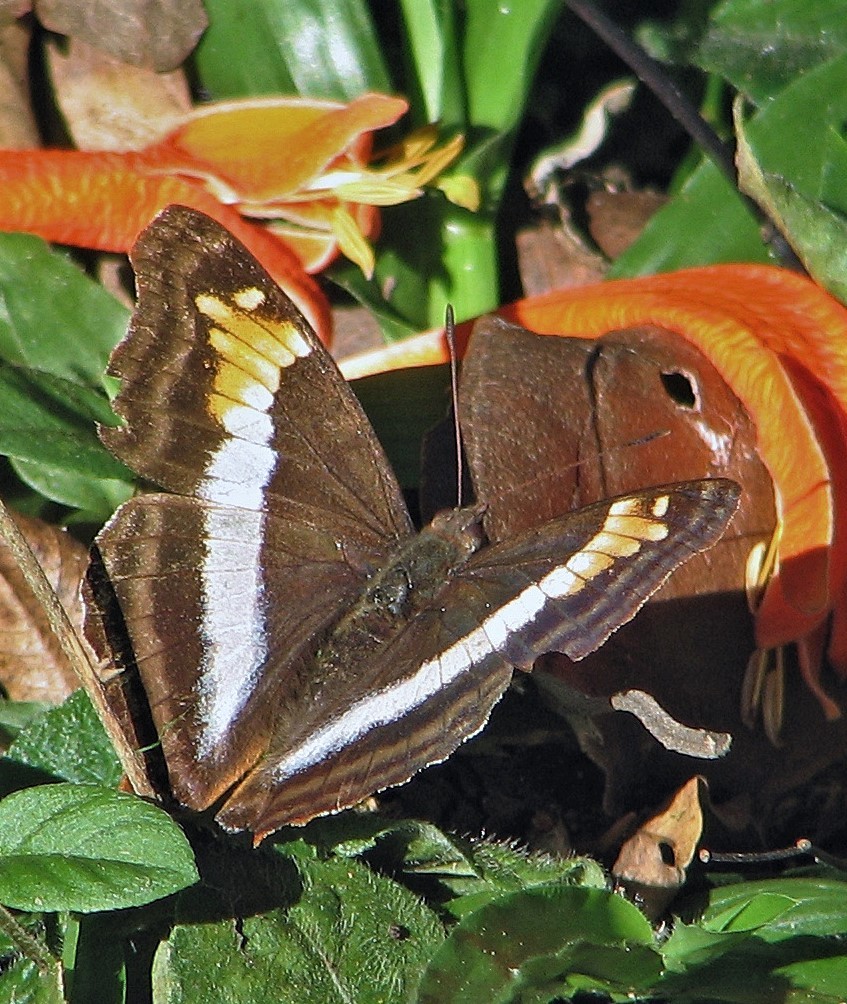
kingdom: Animalia
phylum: Arthropoda
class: Insecta
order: Lepidoptera
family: Nymphalidae
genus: Doxocopa
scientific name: Doxocopa laurentia
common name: Turquoise emperor
